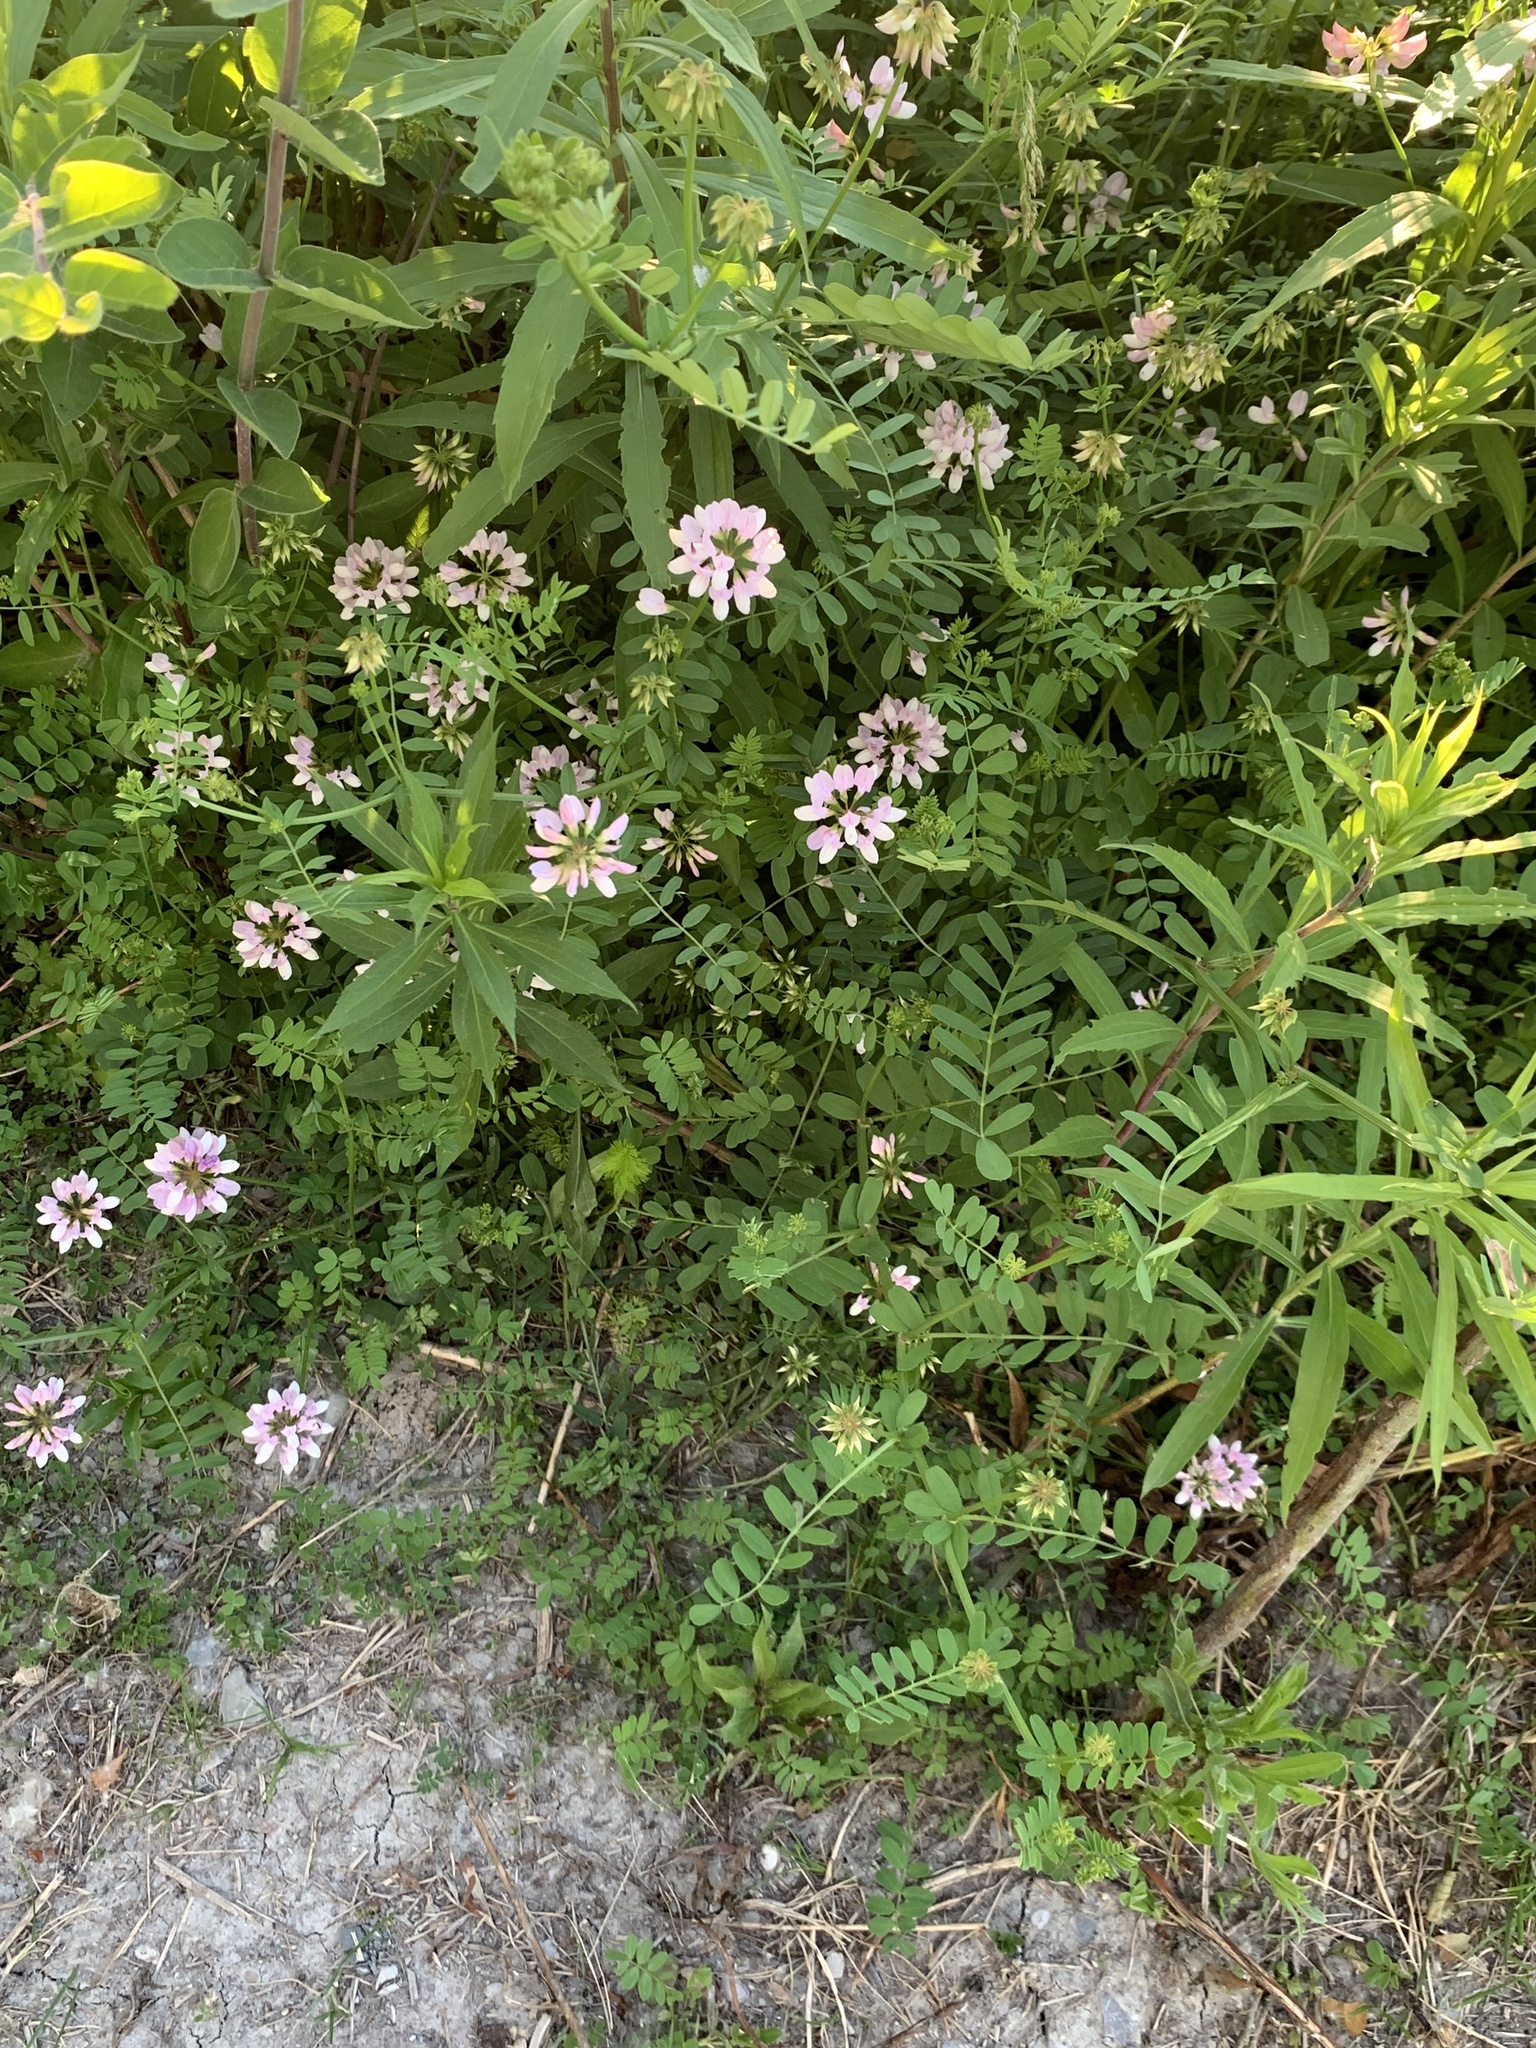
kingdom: Plantae
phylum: Tracheophyta
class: Magnoliopsida
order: Fabales
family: Fabaceae
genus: Coronilla
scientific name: Coronilla varia
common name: Crownvetch
